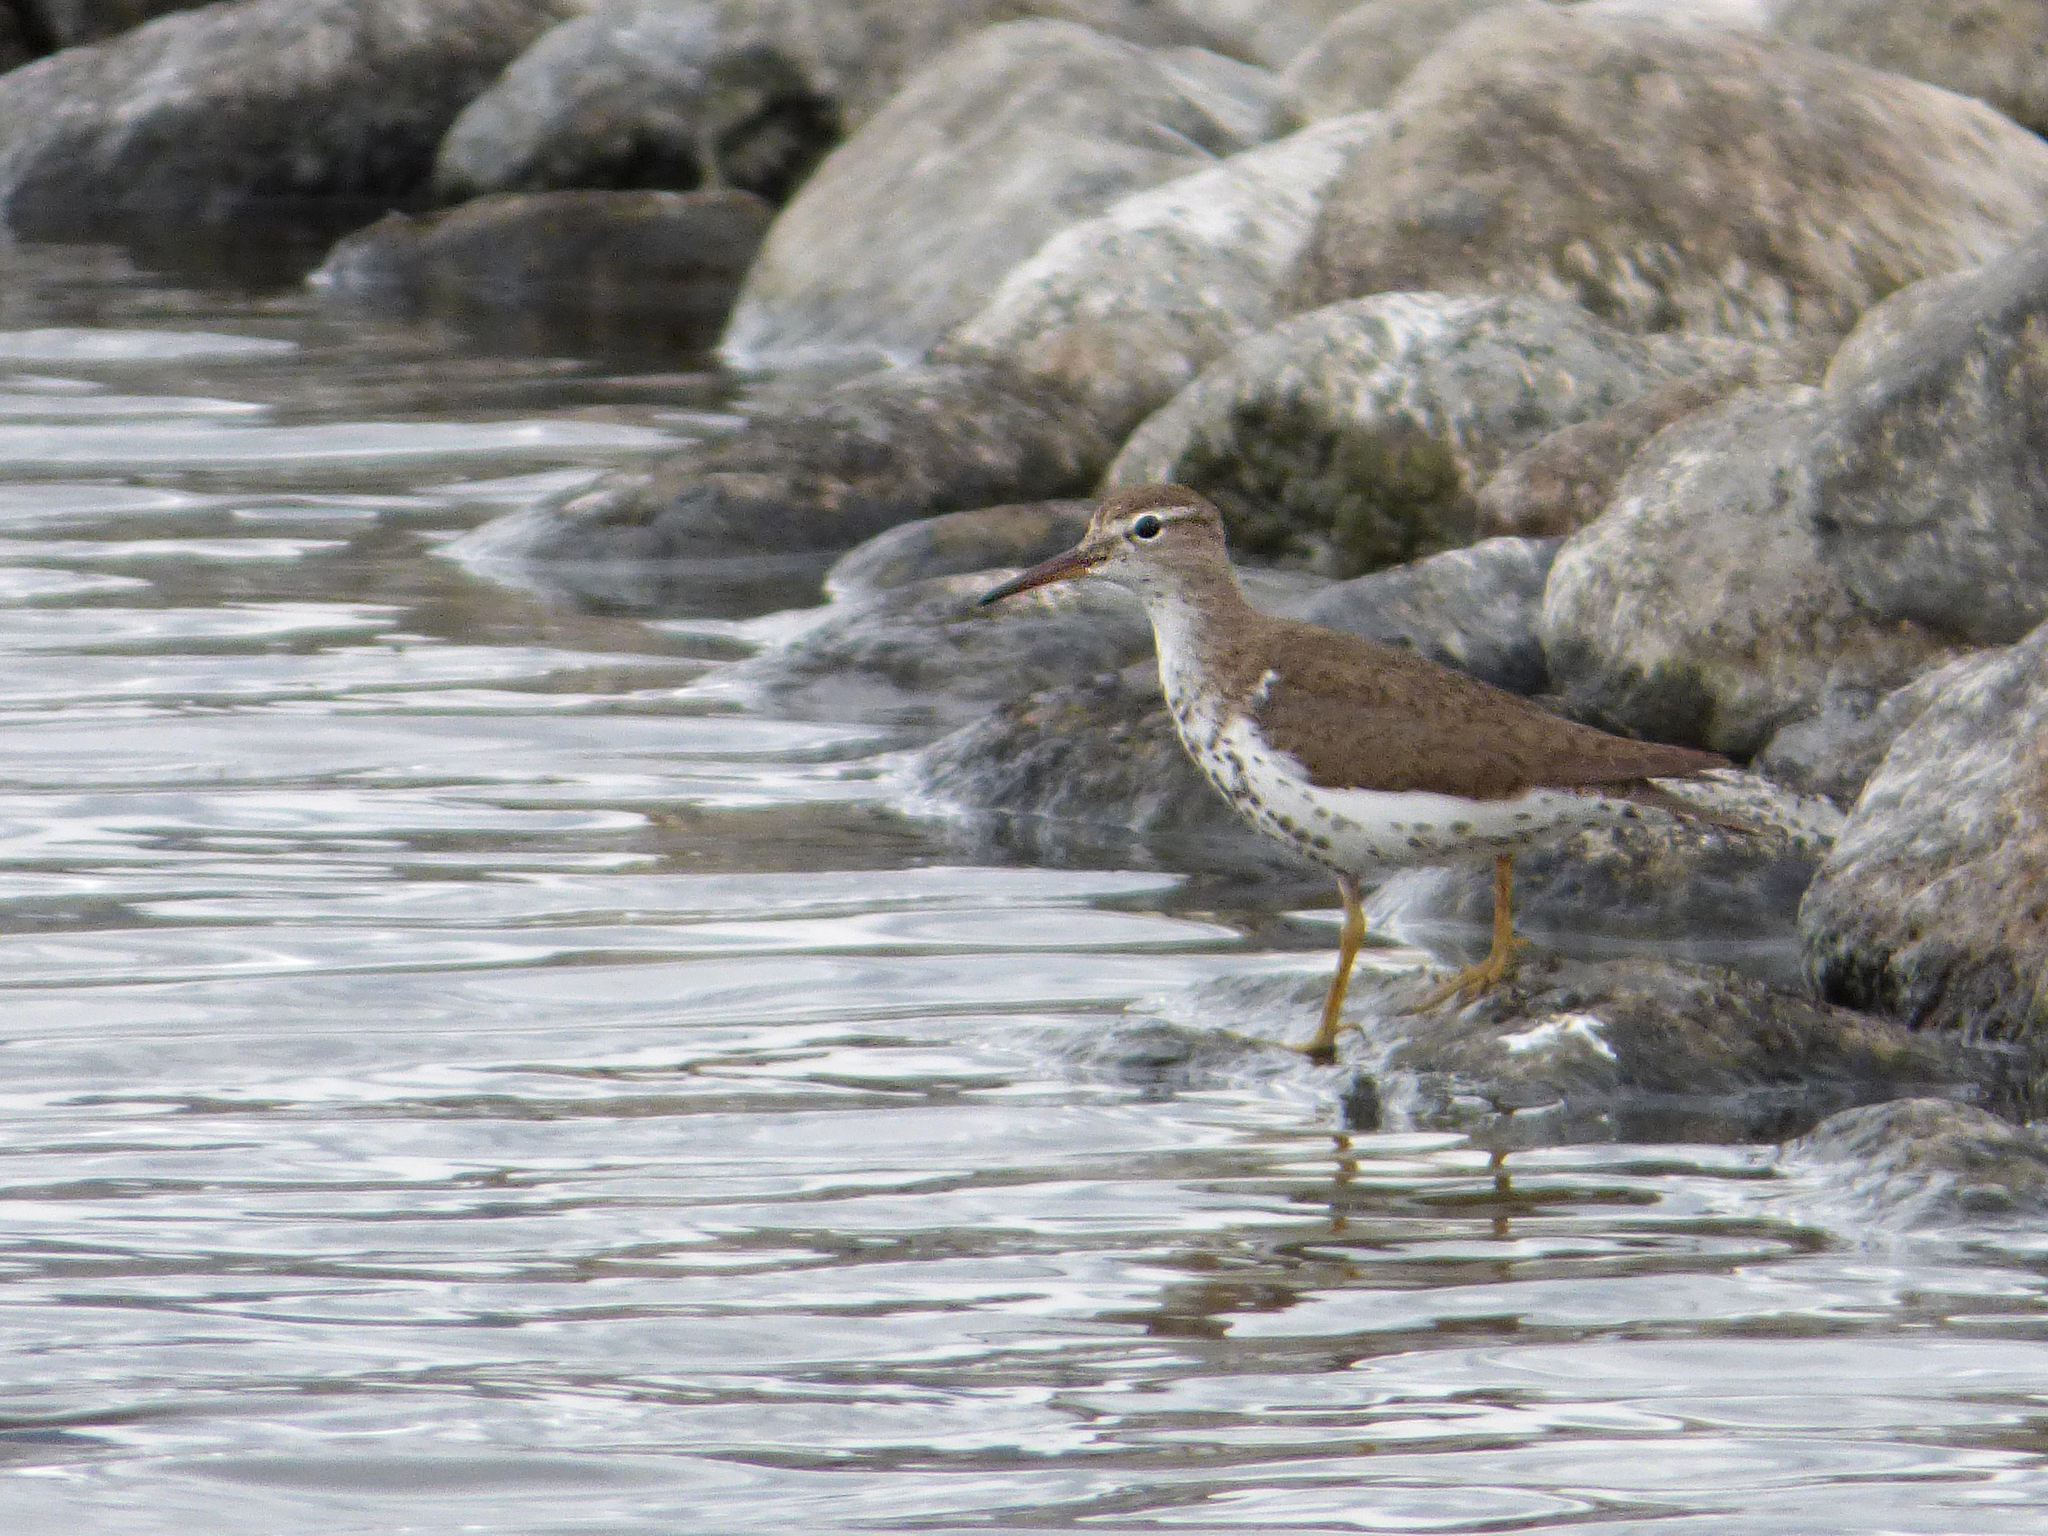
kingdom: Animalia
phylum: Chordata
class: Aves
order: Charadriiformes
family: Scolopacidae
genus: Actitis
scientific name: Actitis macularius
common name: Spotted sandpiper
